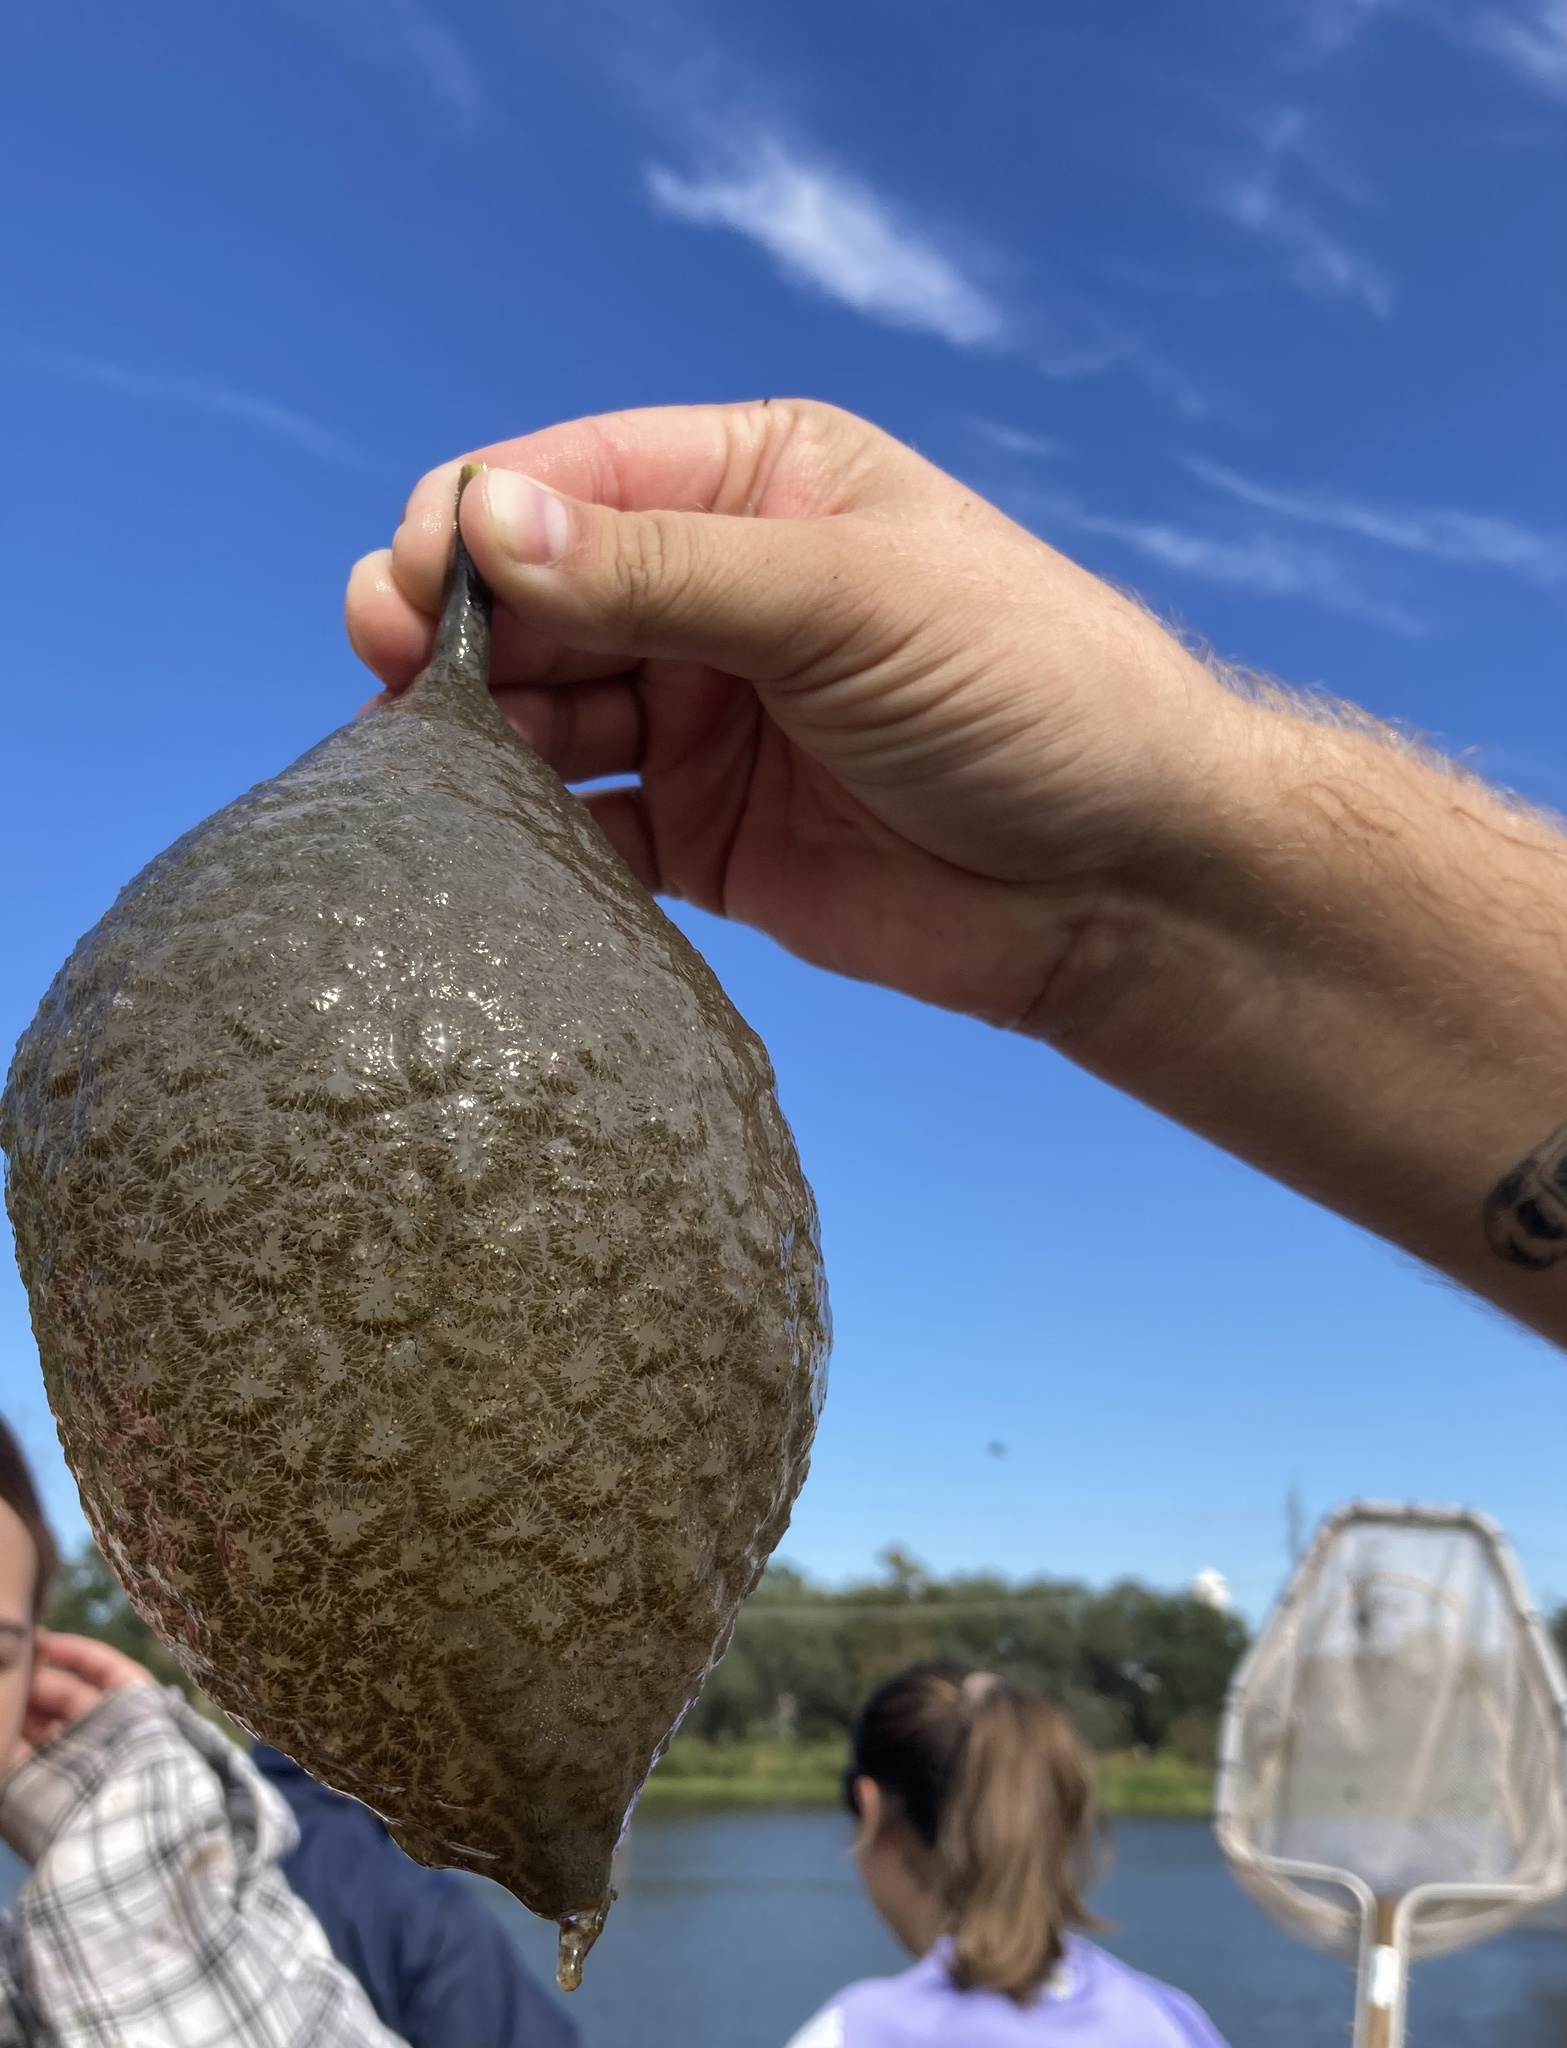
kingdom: Animalia
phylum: Bryozoa
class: Phylactolaemata
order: Plumatellida
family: Pectinatellidae
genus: Pectinatella
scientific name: Pectinatella magnifica
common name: Magnificent bryozoan
